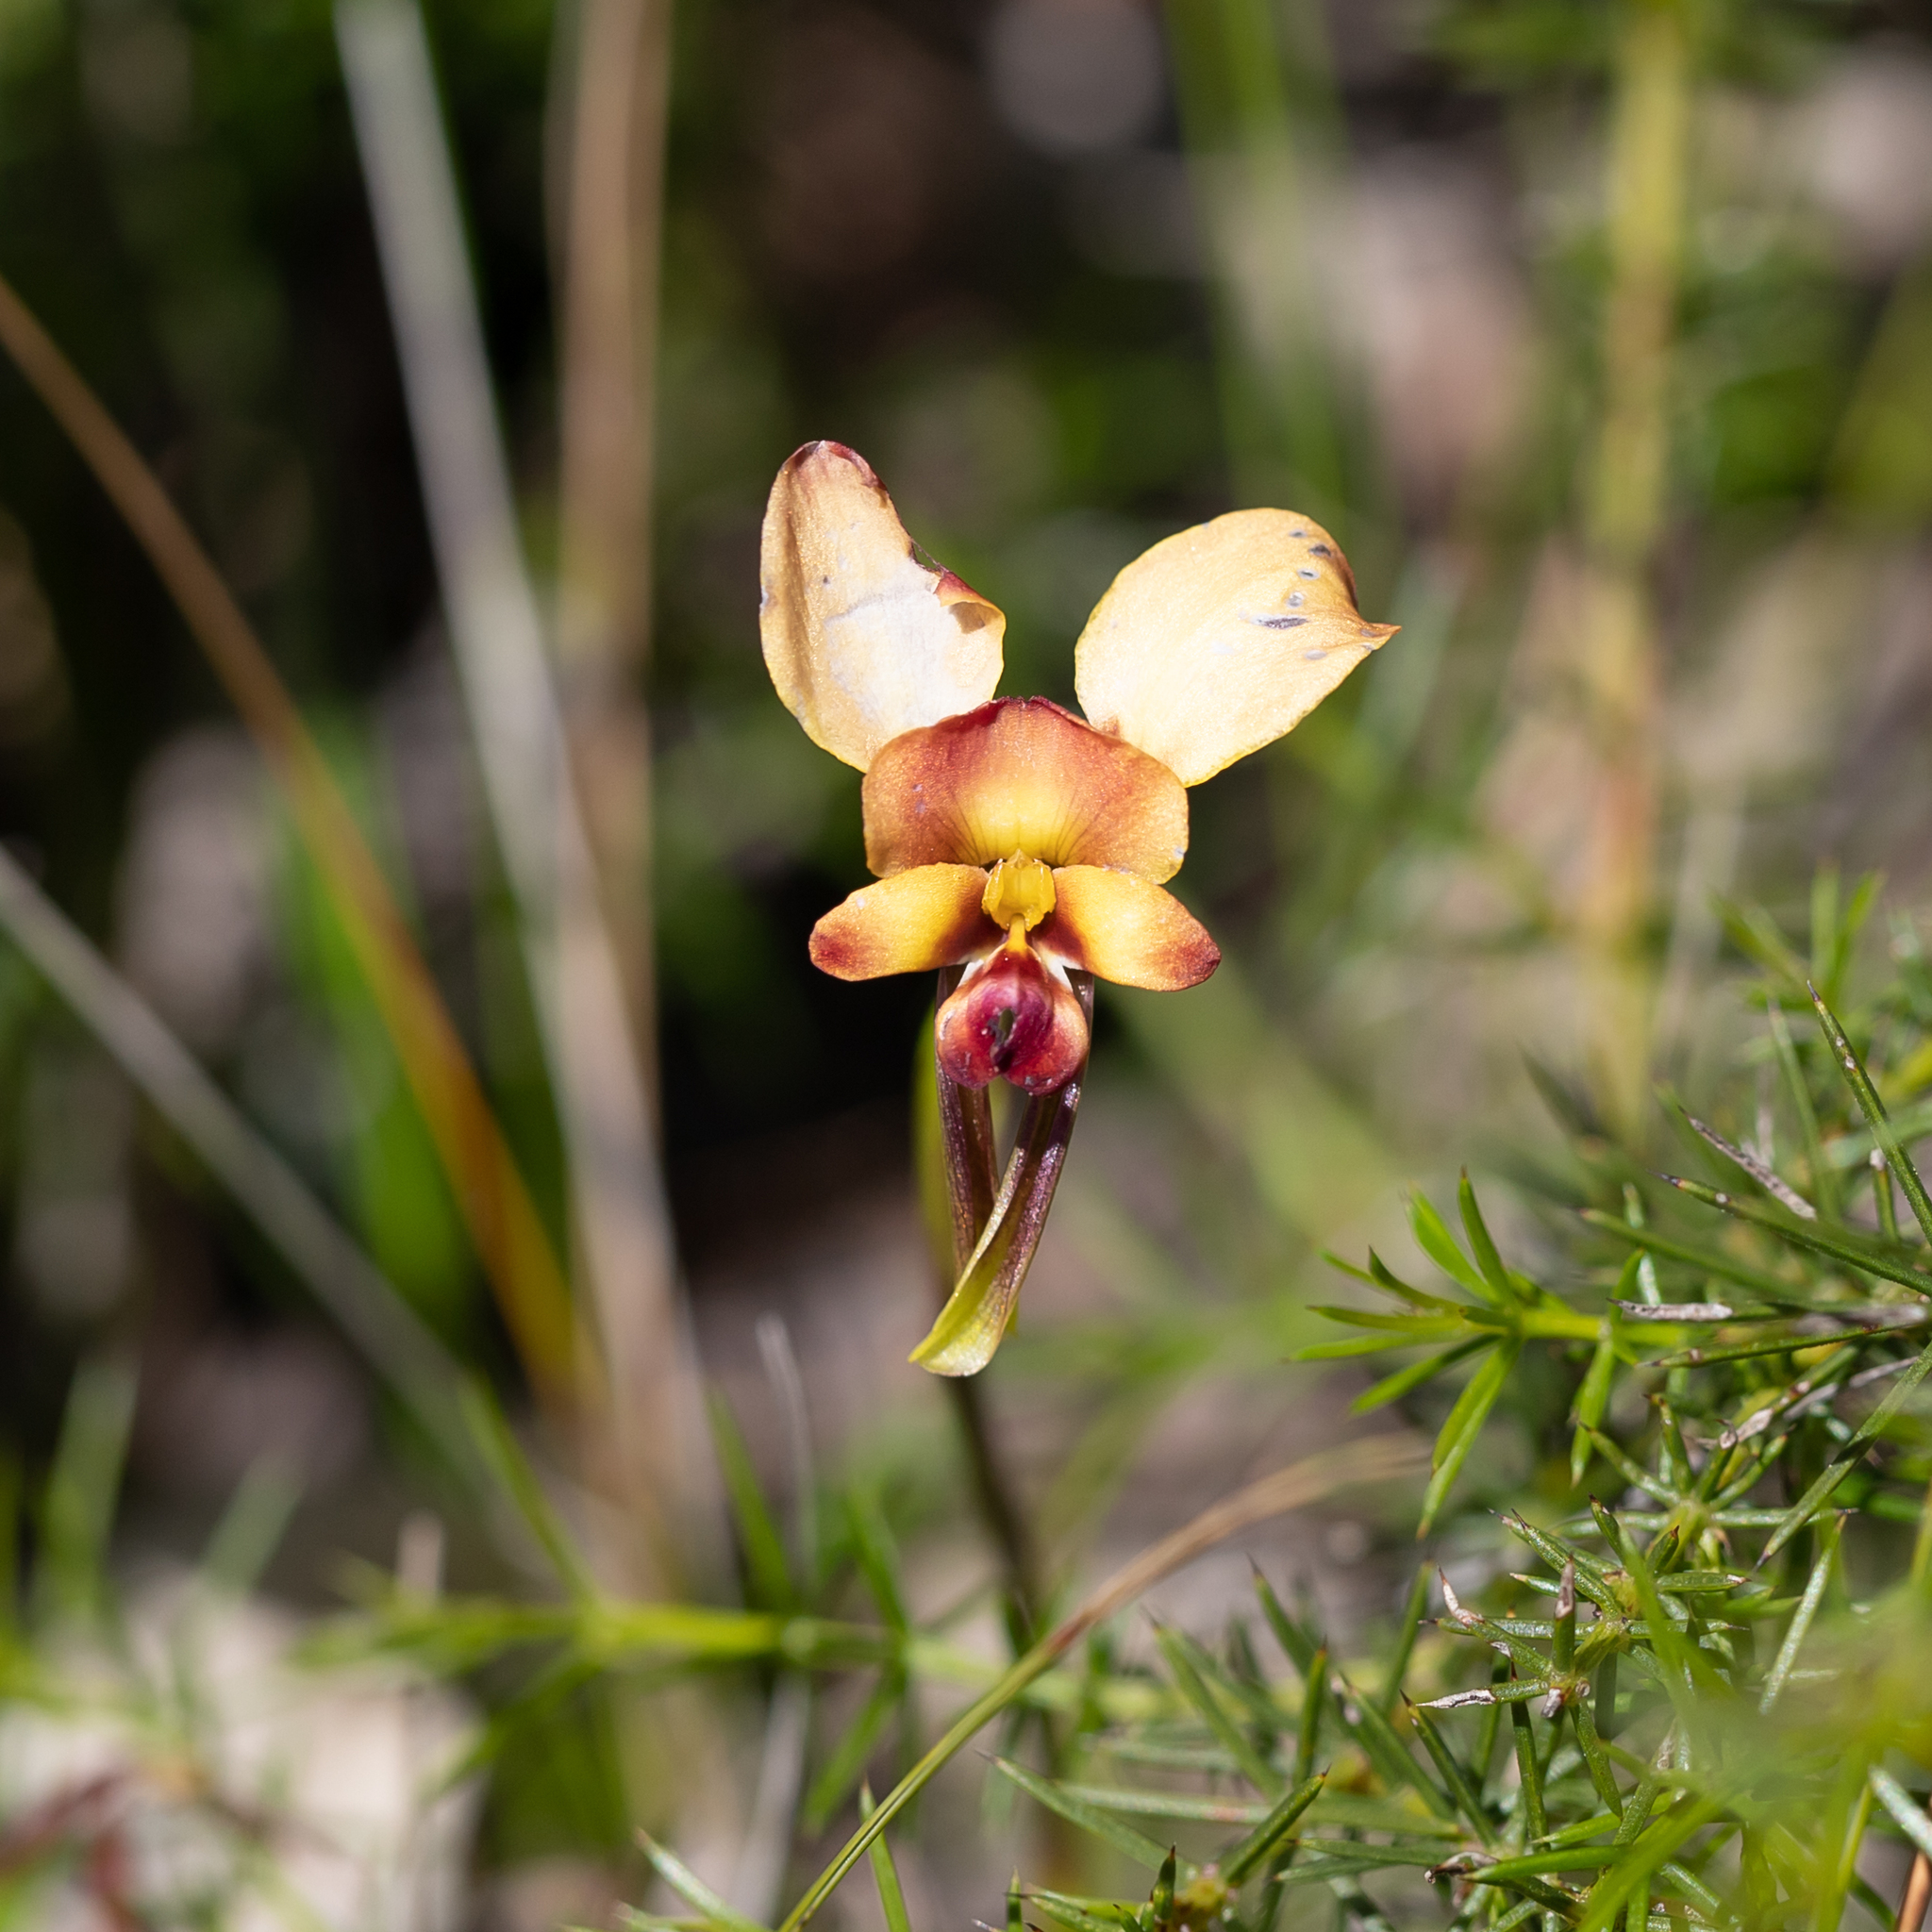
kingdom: Plantae
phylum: Tracheophyta
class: Liliopsida
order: Asparagales
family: Orchidaceae
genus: Diuris
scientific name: Diuris orientis
